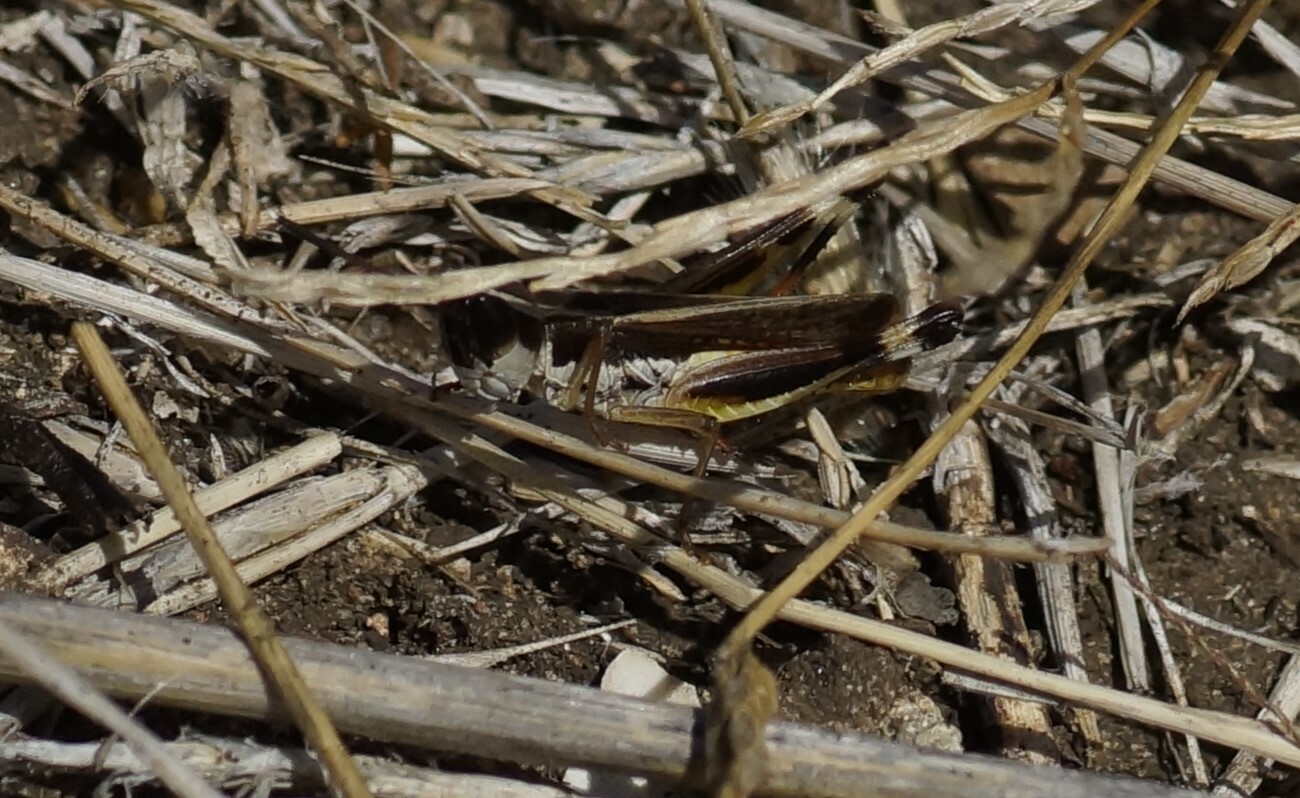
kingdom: Animalia
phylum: Arthropoda
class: Insecta
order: Orthoptera
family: Acrididae
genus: Macrotona
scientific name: Macrotona australis
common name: Common macrotona
